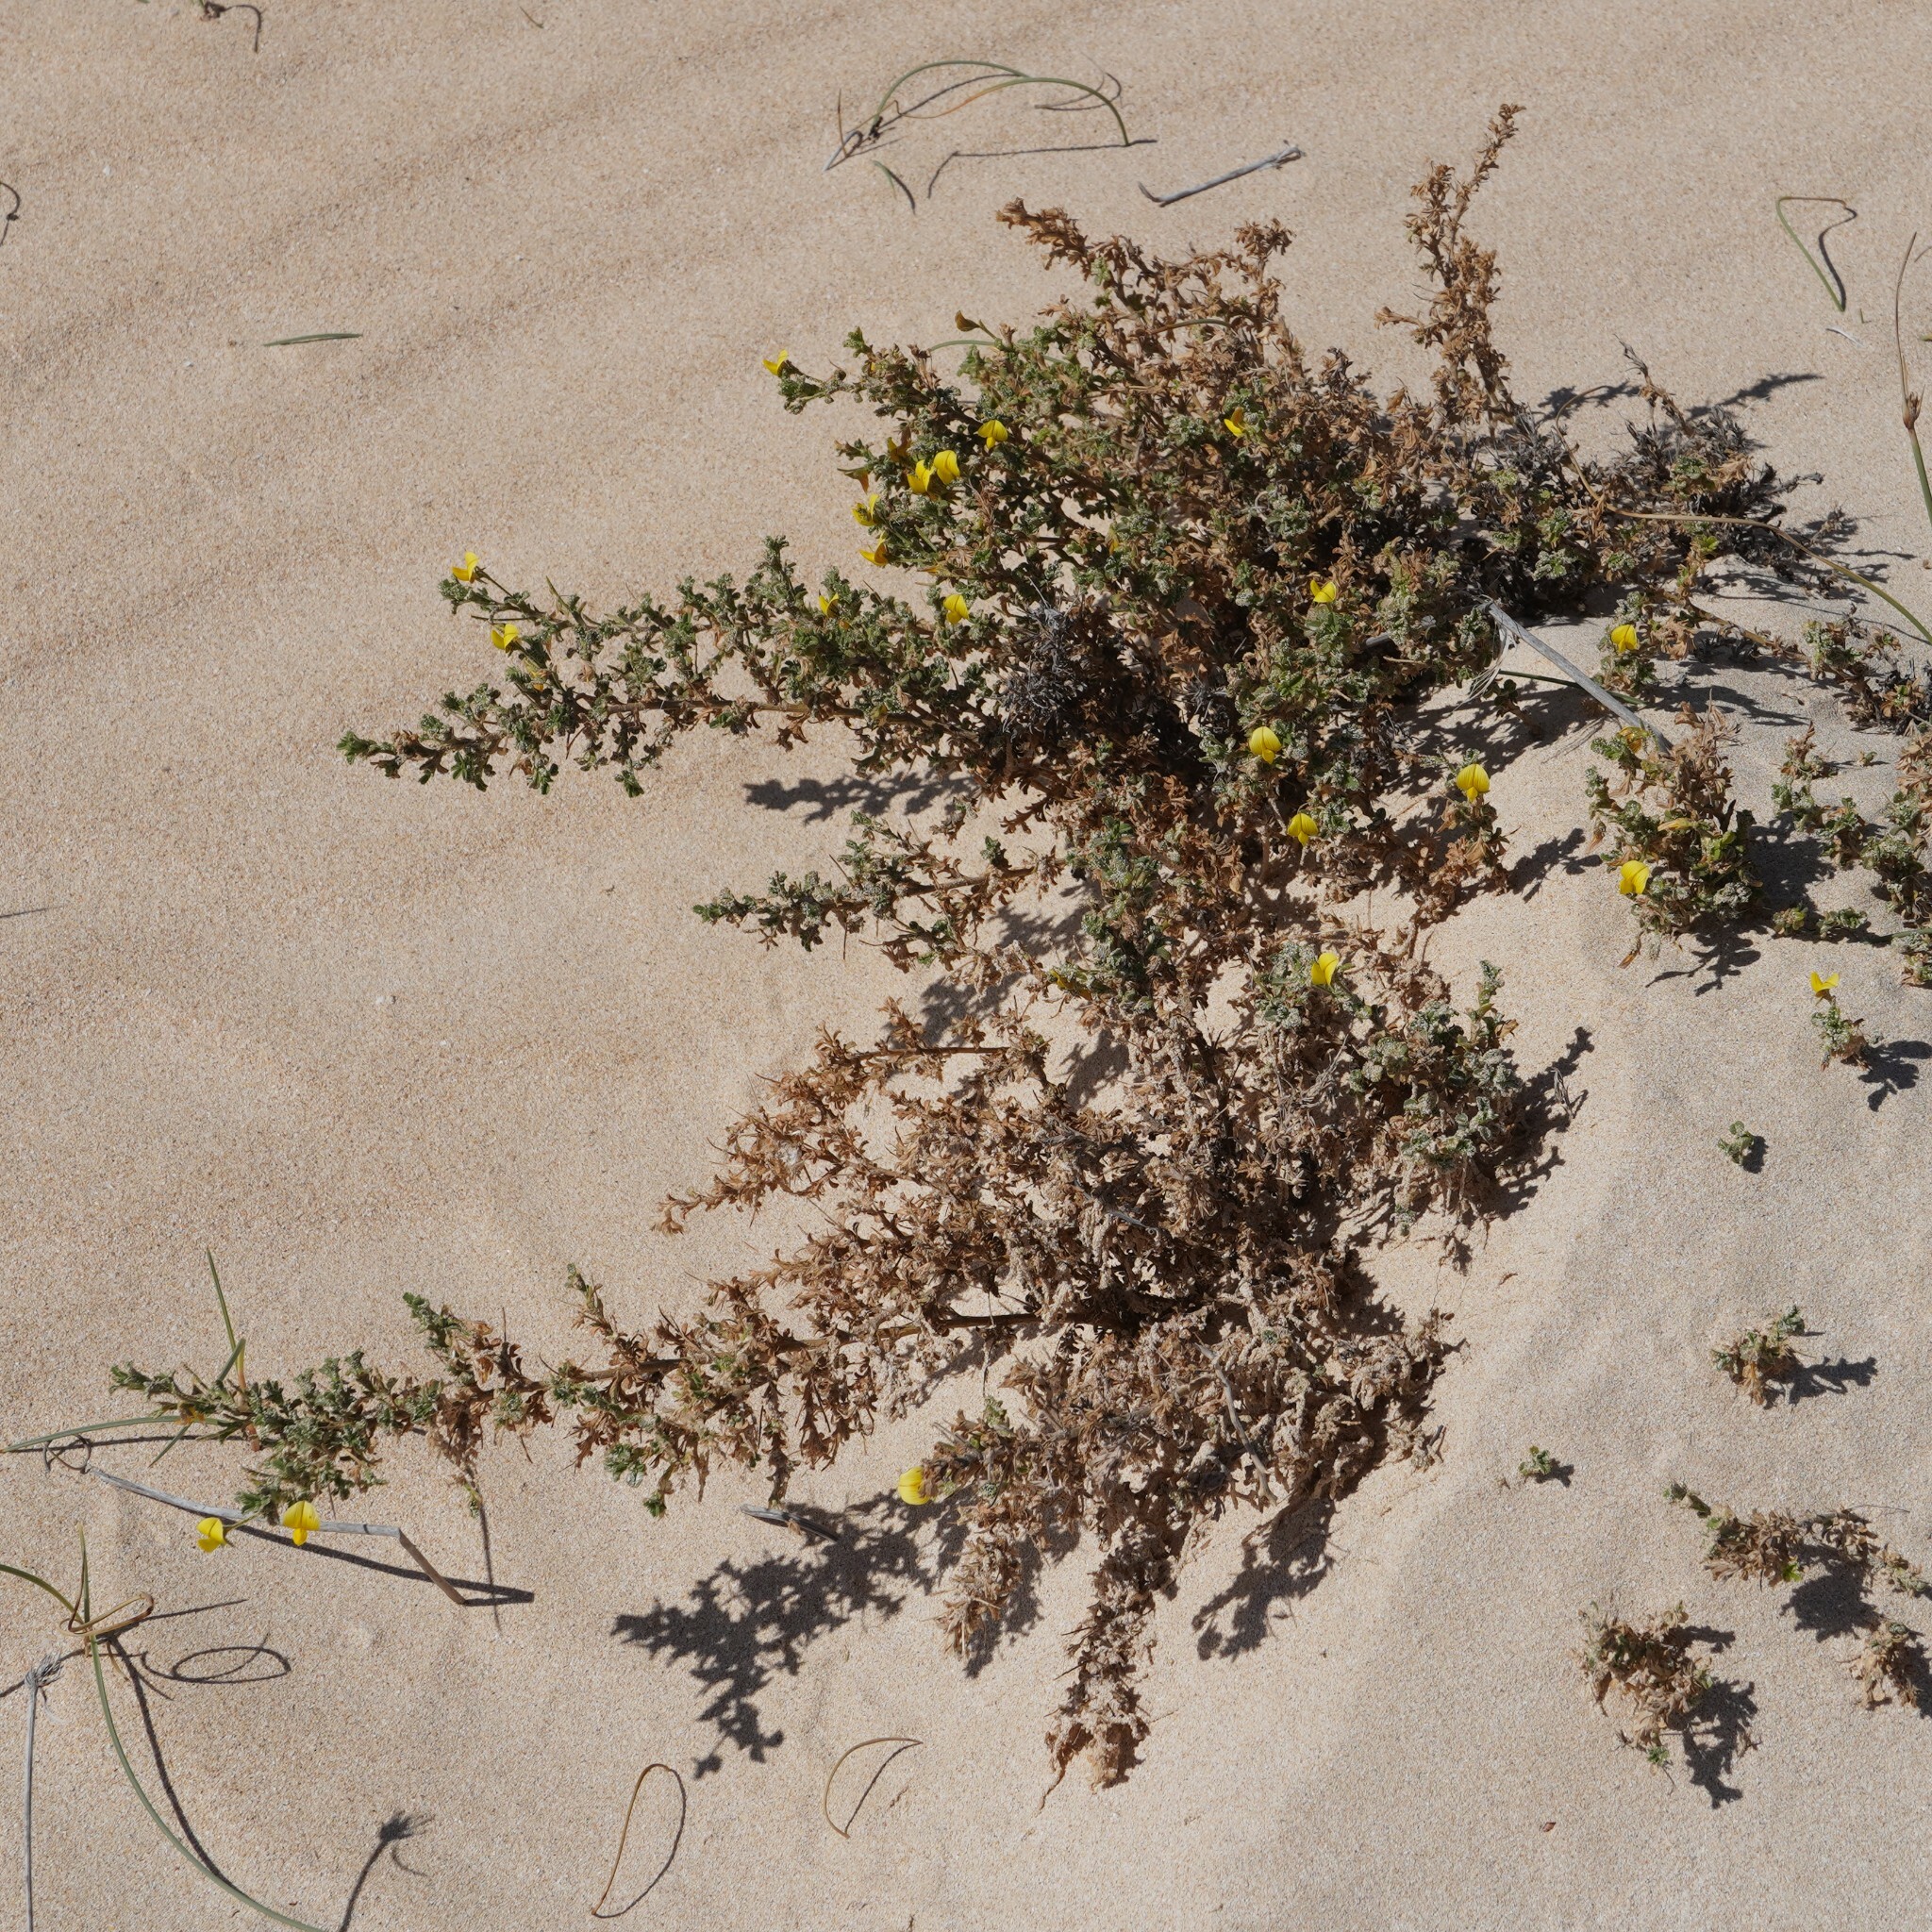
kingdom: Plantae
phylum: Tracheophyta
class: Magnoliopsida
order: Fabales
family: Fabaceae
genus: Ononis
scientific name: Ononis natrix
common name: Yellow restharrow
